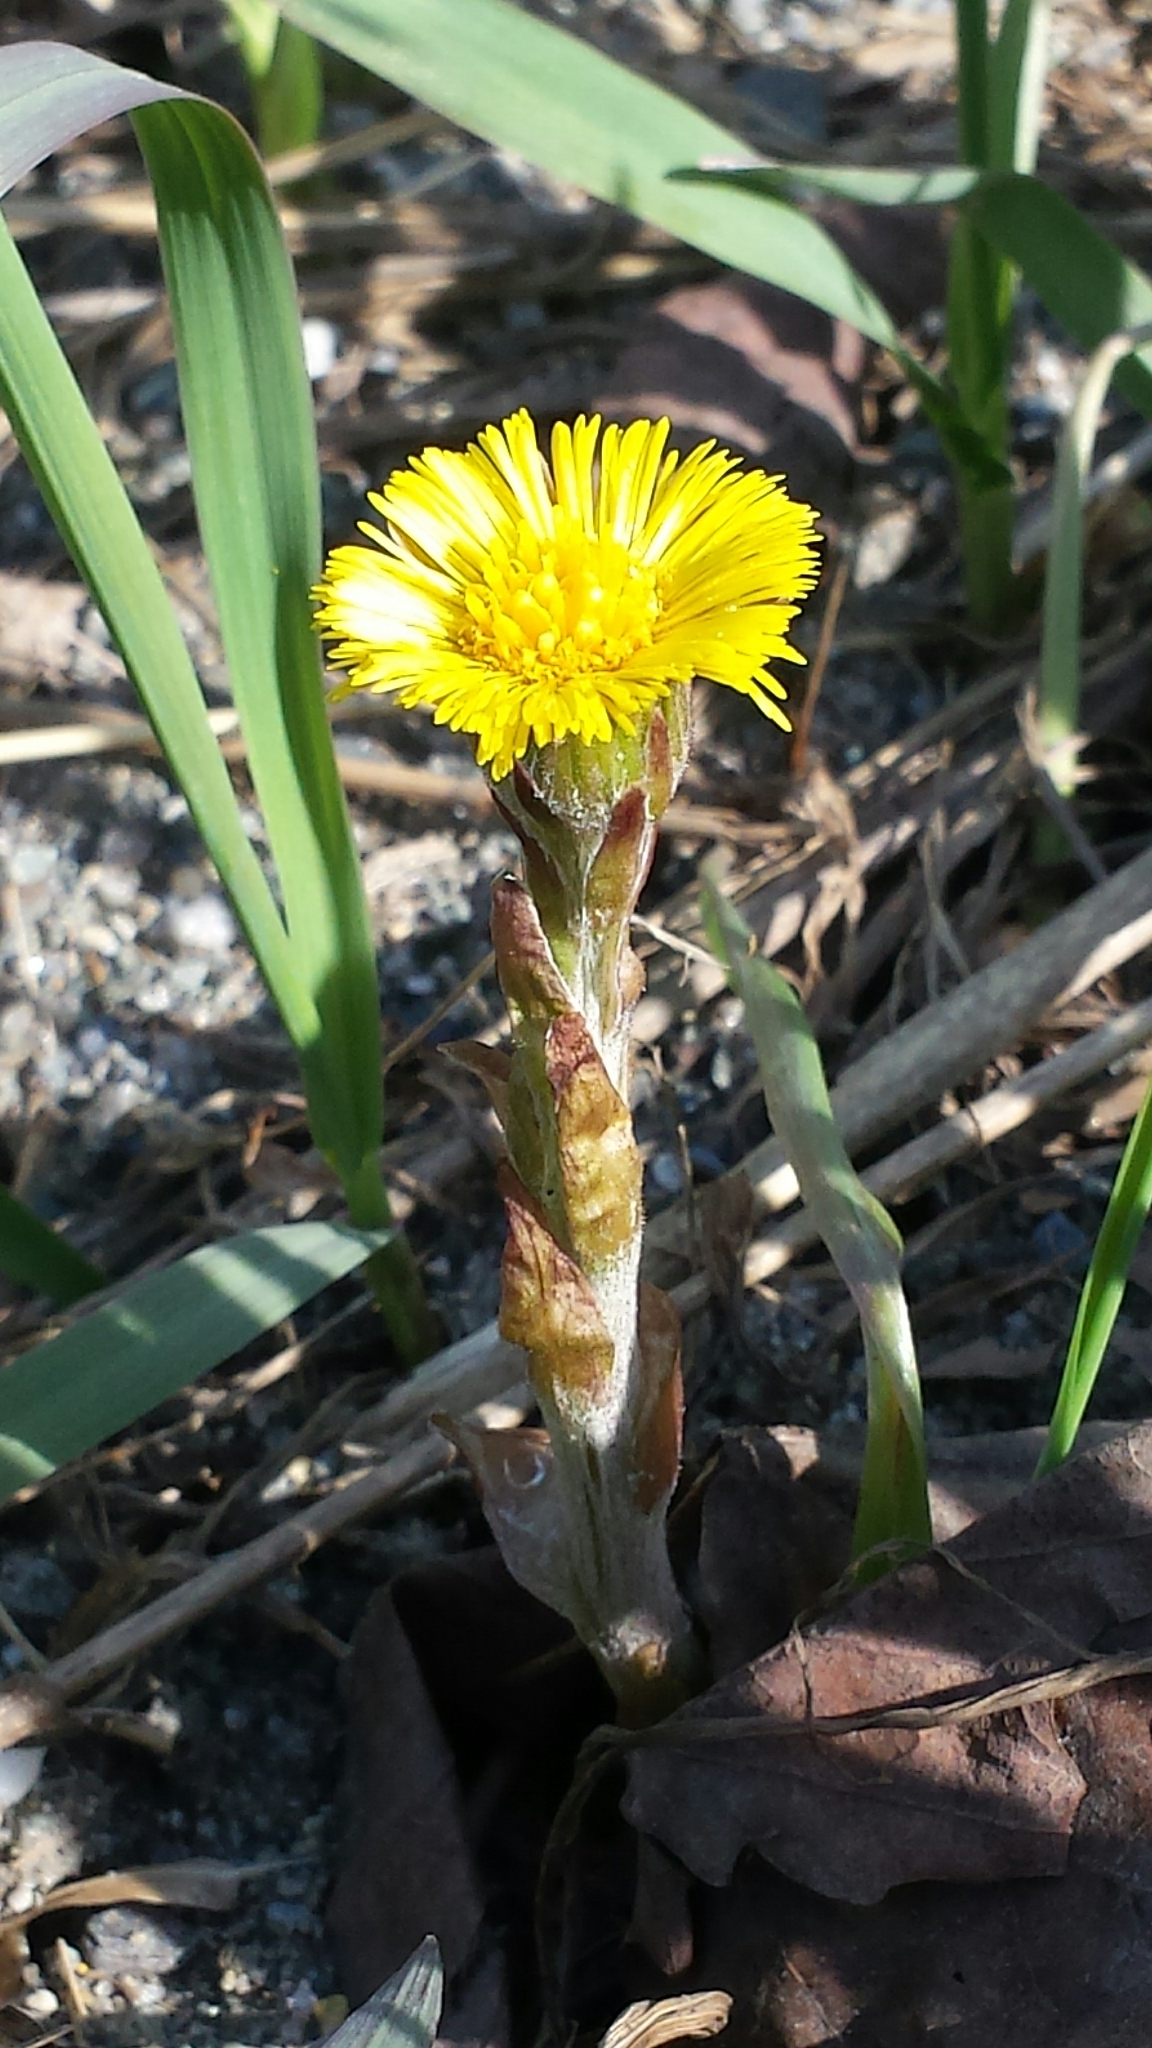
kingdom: Plantae
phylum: Tracheophyta
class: Magnoliopsida
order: Asterales
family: Asteraceae
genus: Tussilago
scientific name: Tussilago farfara
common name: Coltsfoot
